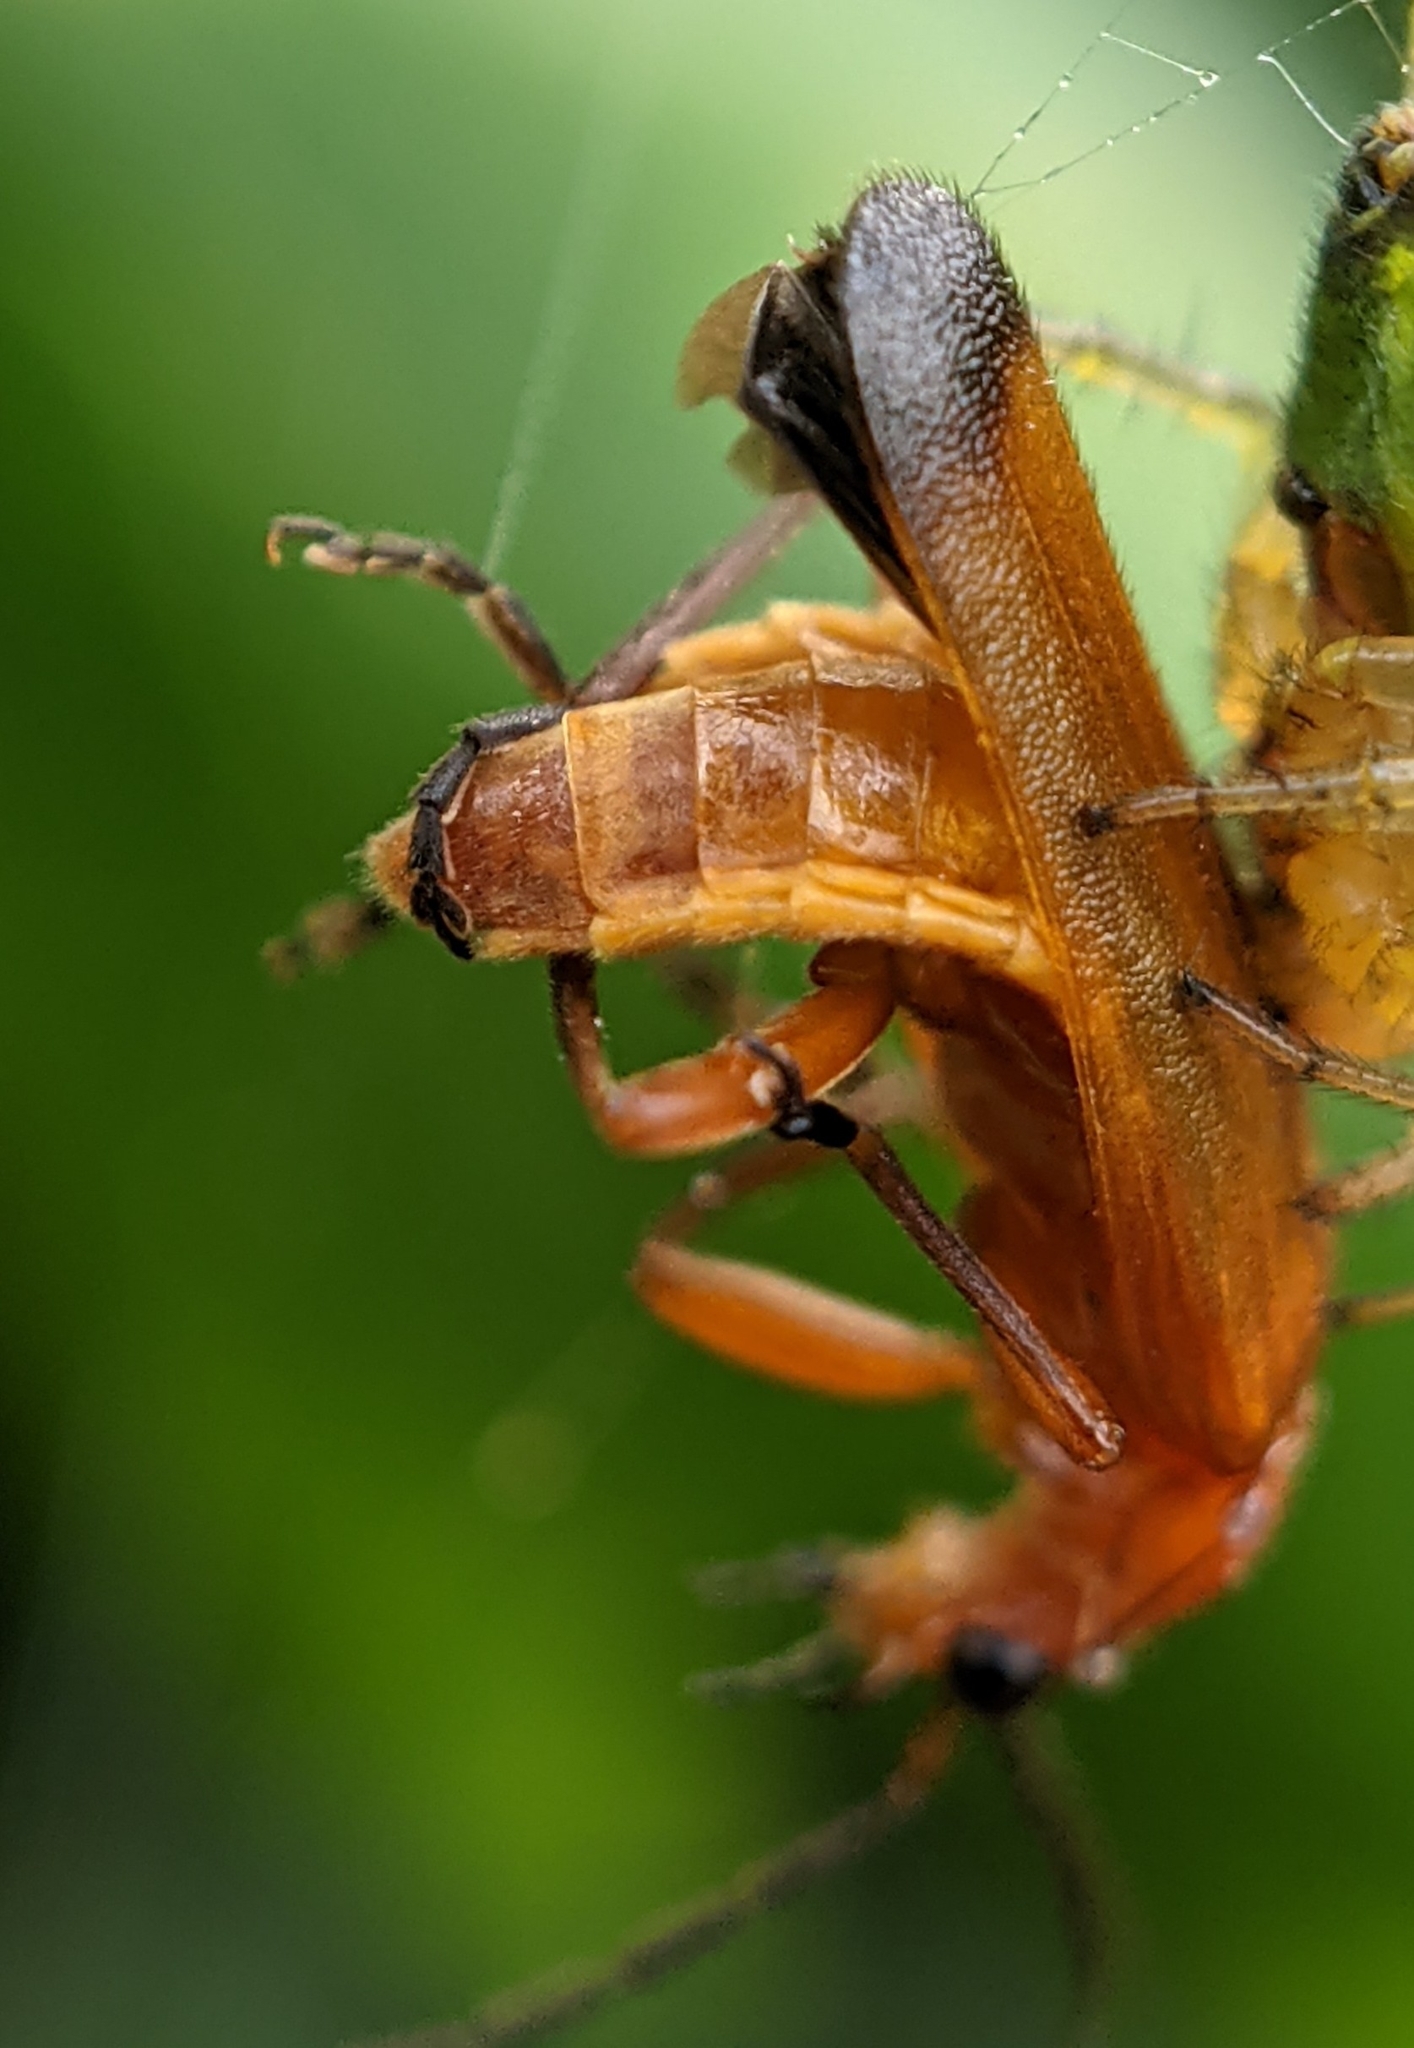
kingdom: Animalia
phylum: Arthropoda
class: Insecta
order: Coleoptera
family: Cantharidae
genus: Rhagonycha
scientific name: Rhagonycha fulva
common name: Common red soldier beetle
